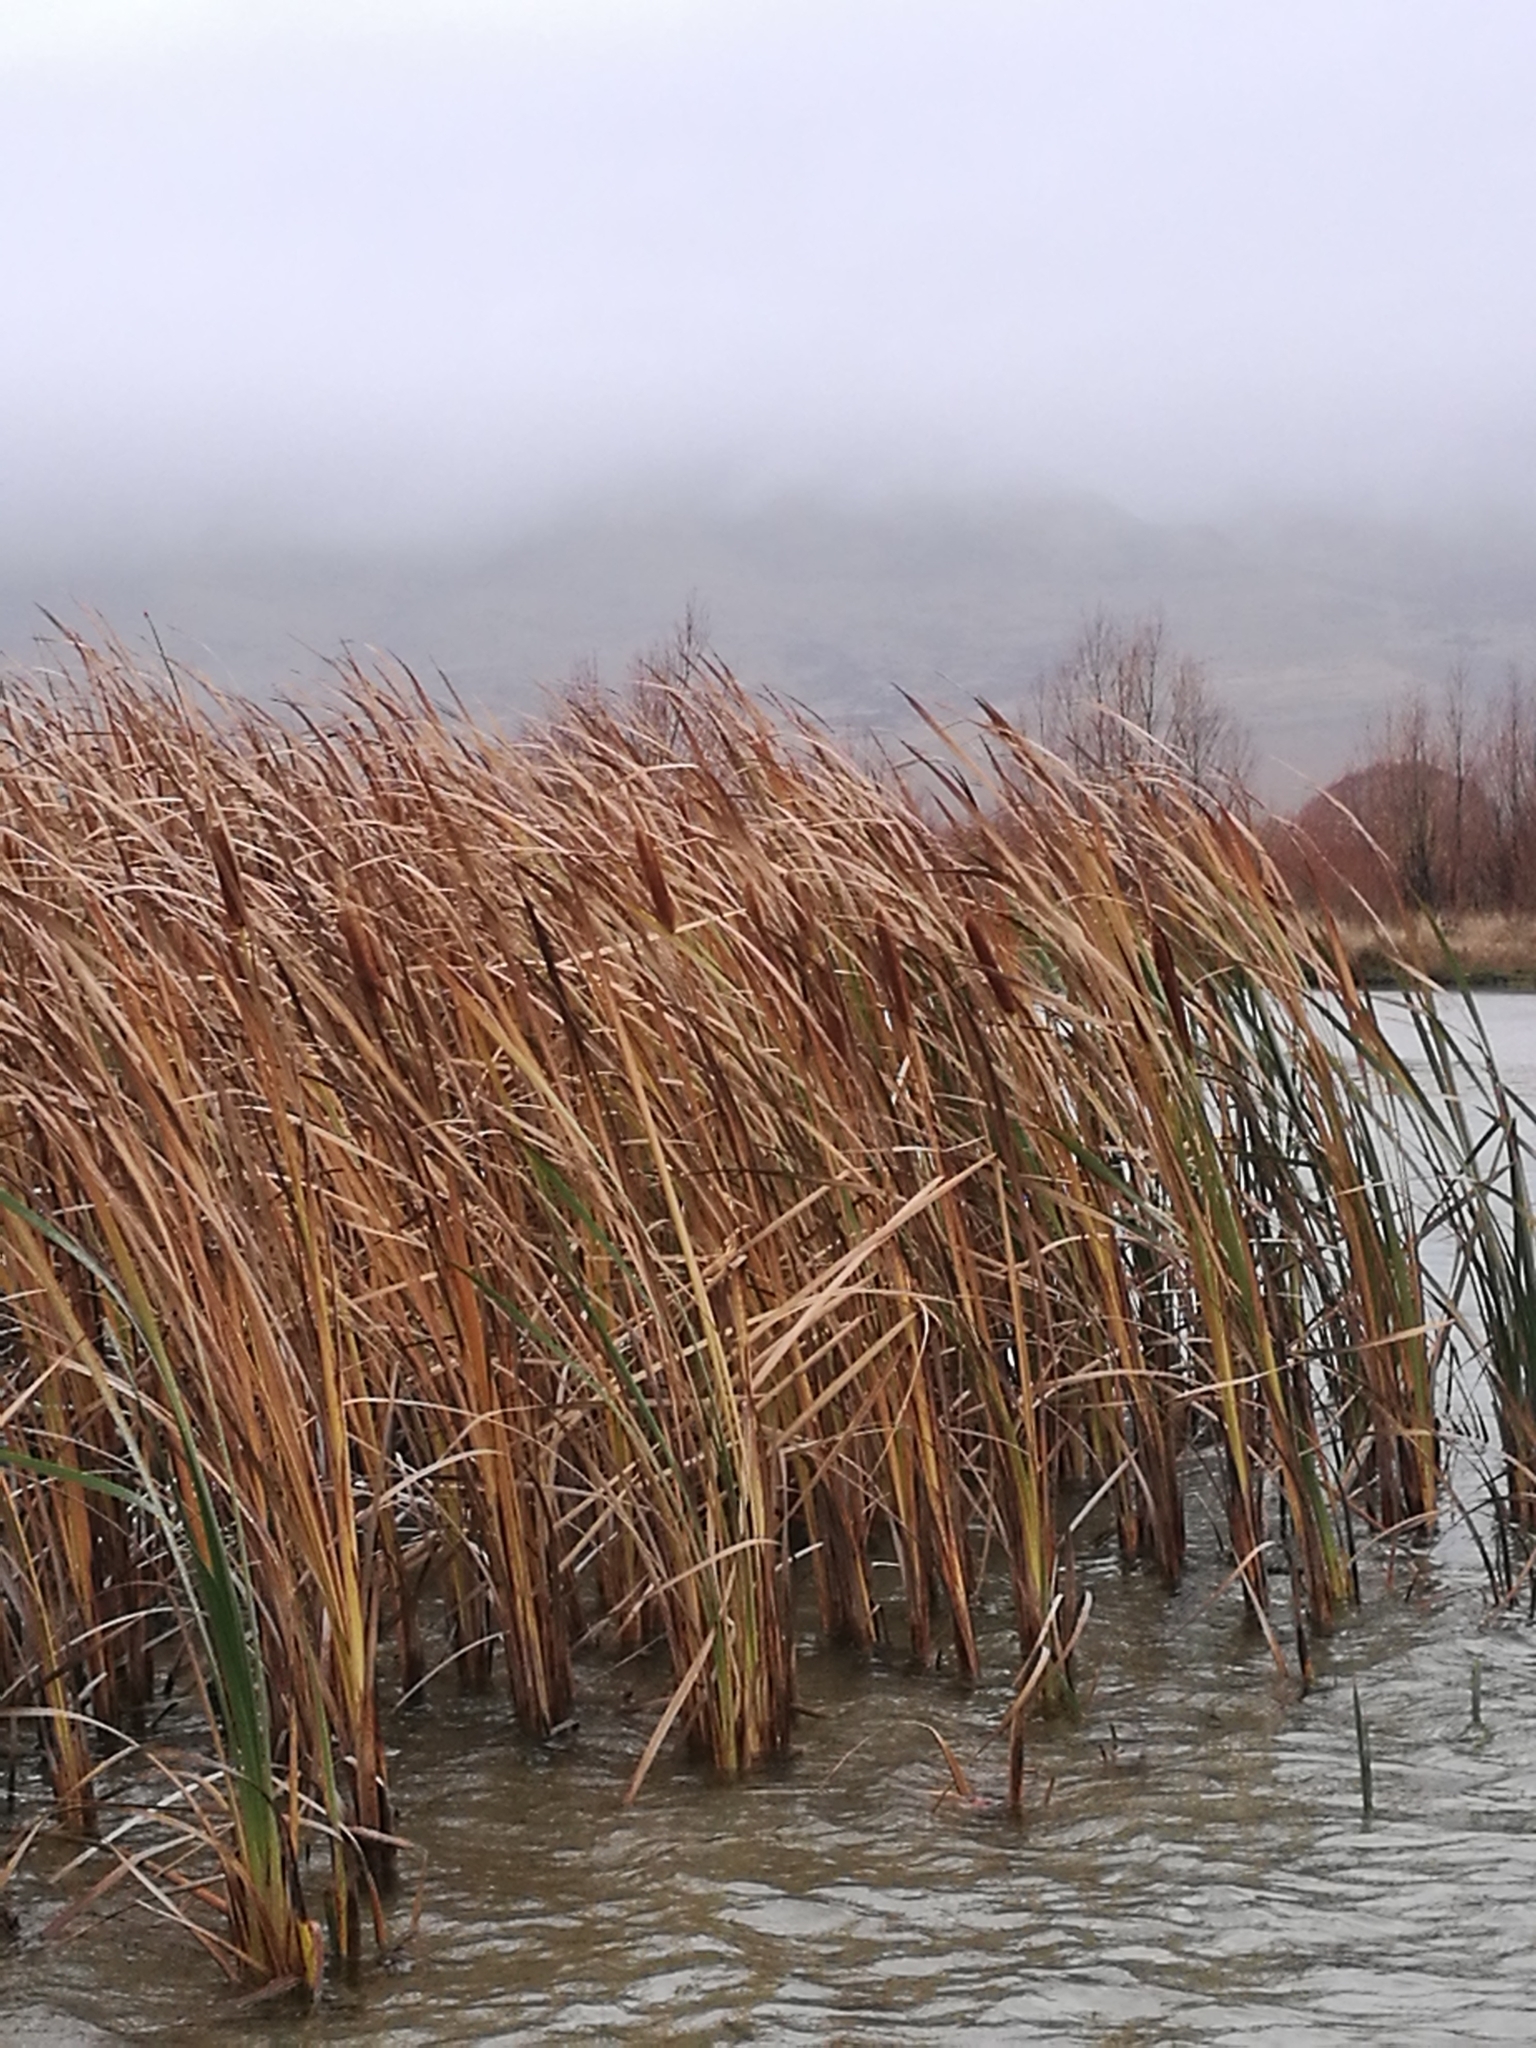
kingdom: Plantae
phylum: Tracheophyta
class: Liliopsida
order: Poales
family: Typhaceae
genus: Typha
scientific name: Typha orientalis
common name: Bullrush
